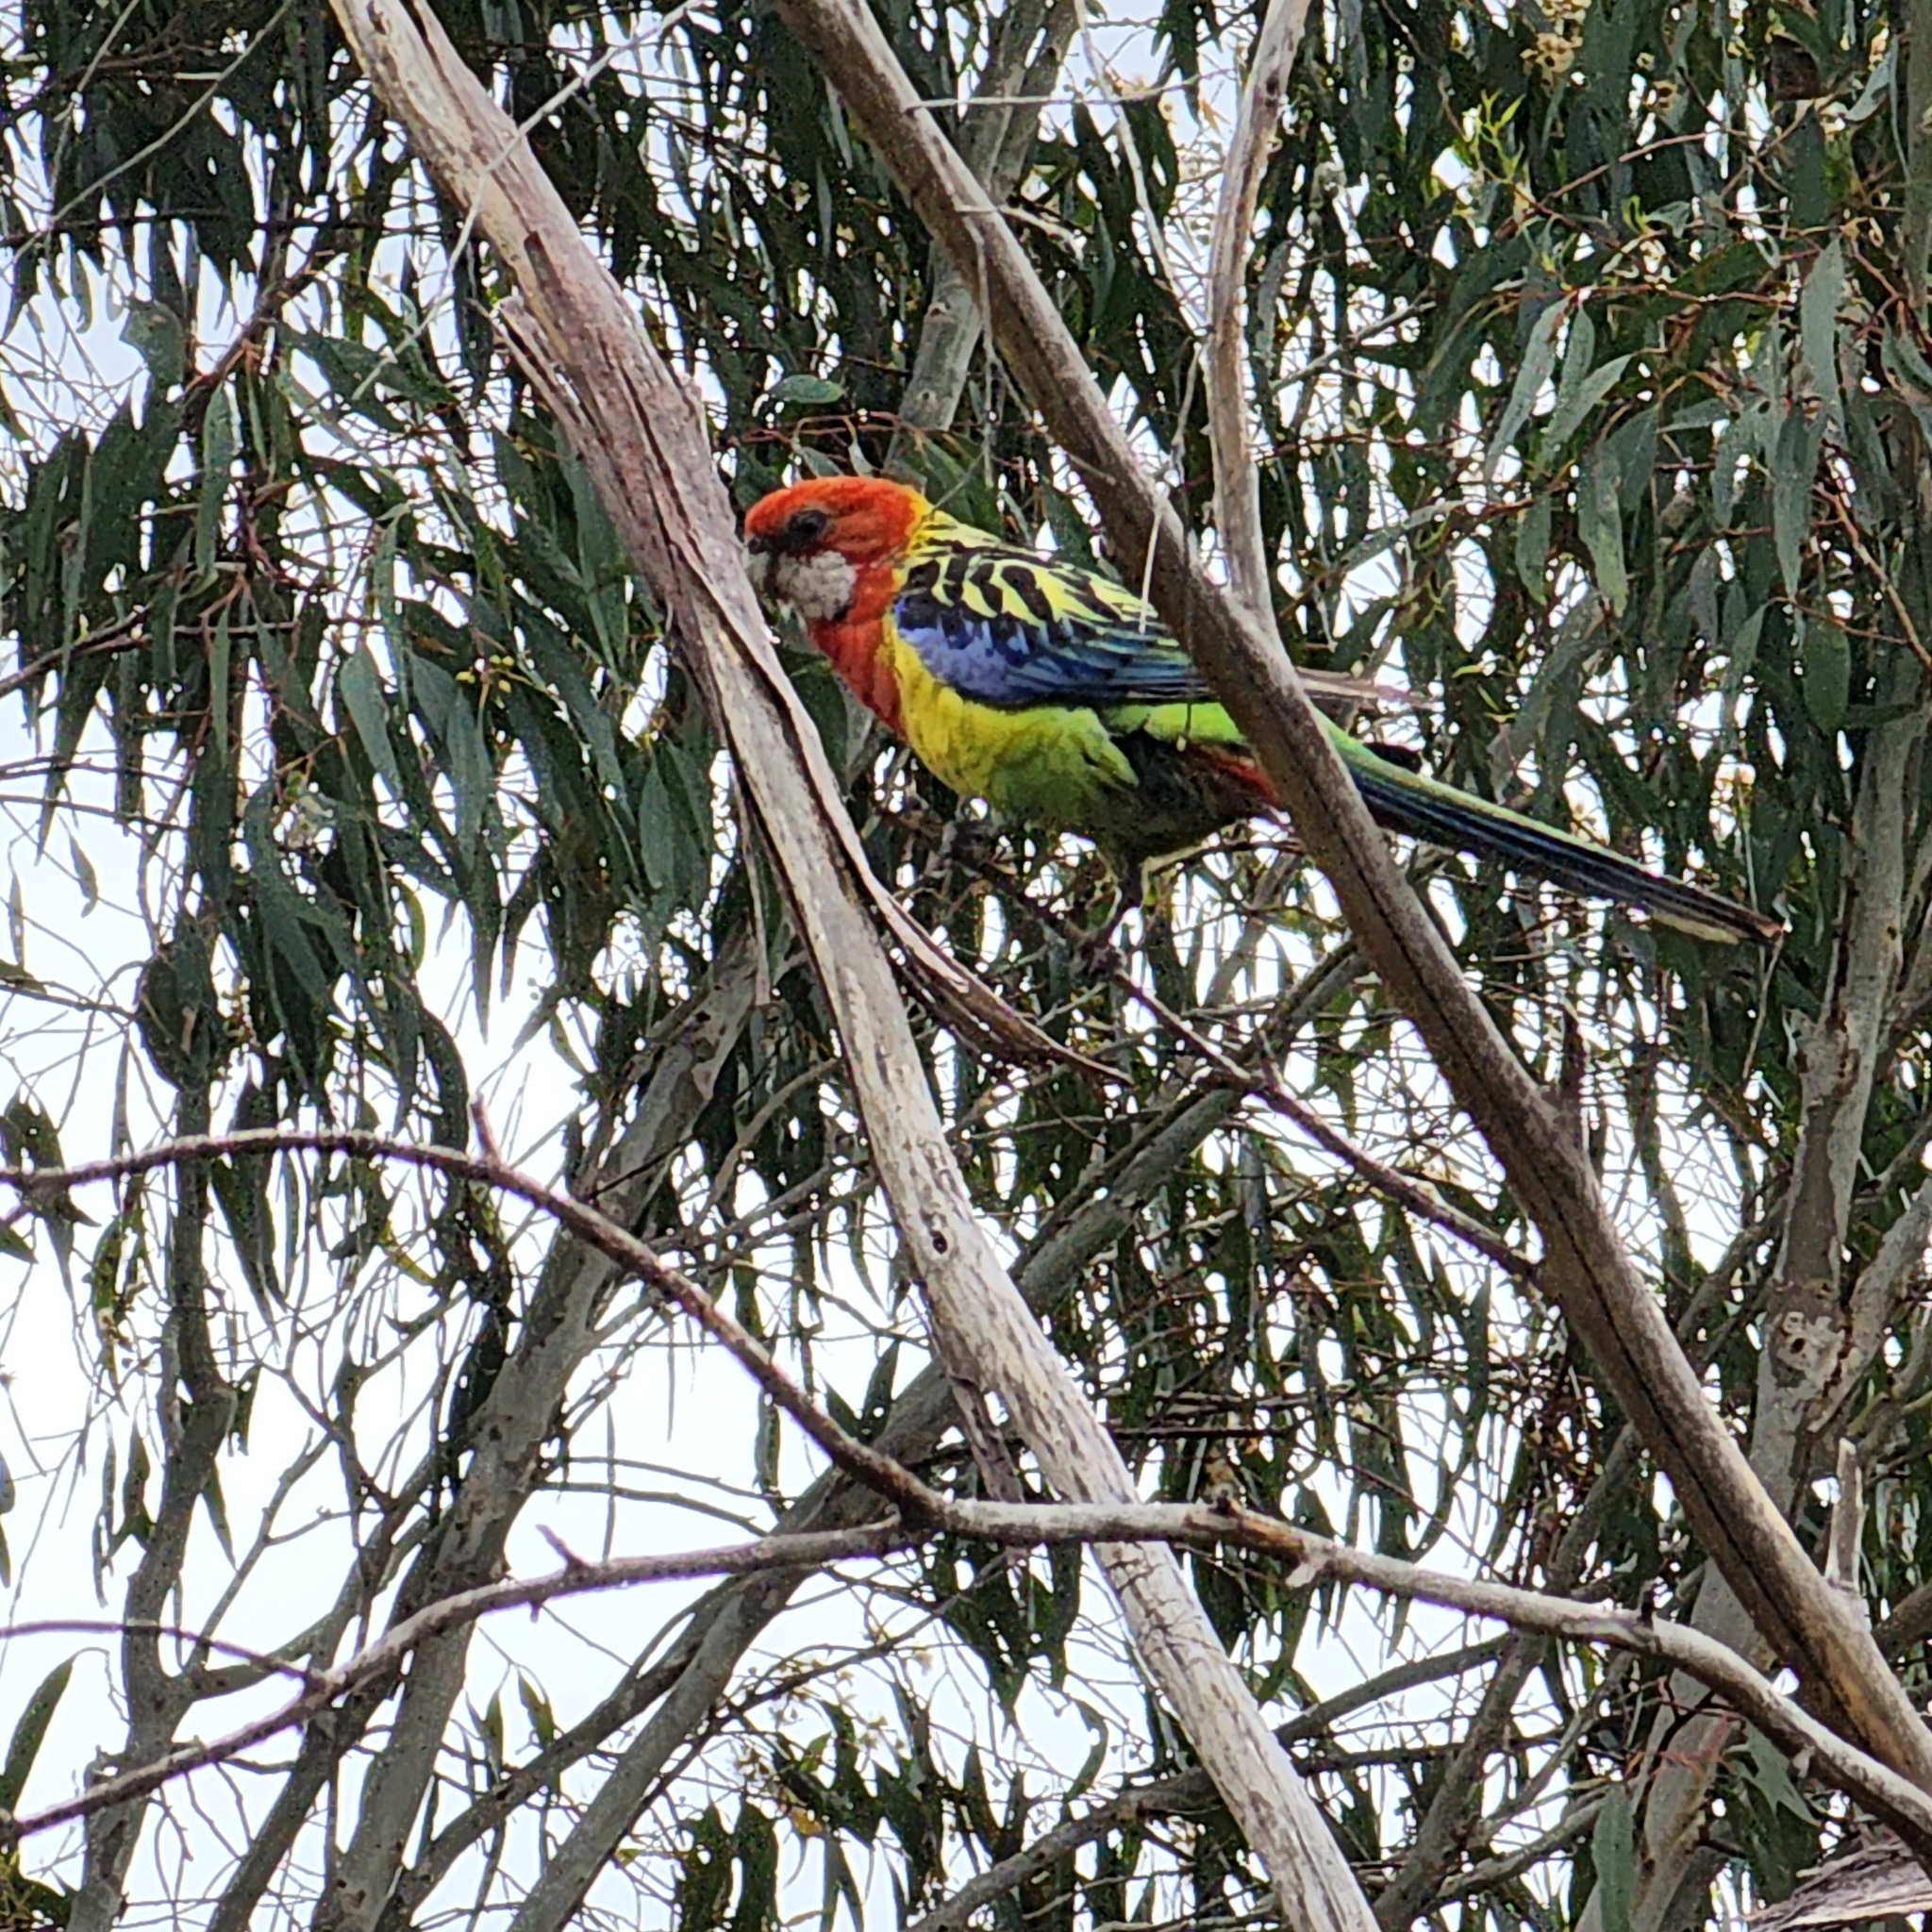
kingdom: Animalia
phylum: Chordata
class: Aves
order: Psittaciformes
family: Psittacidae
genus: Platycercus
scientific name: Platycercus eximius
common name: Eastern rosella
